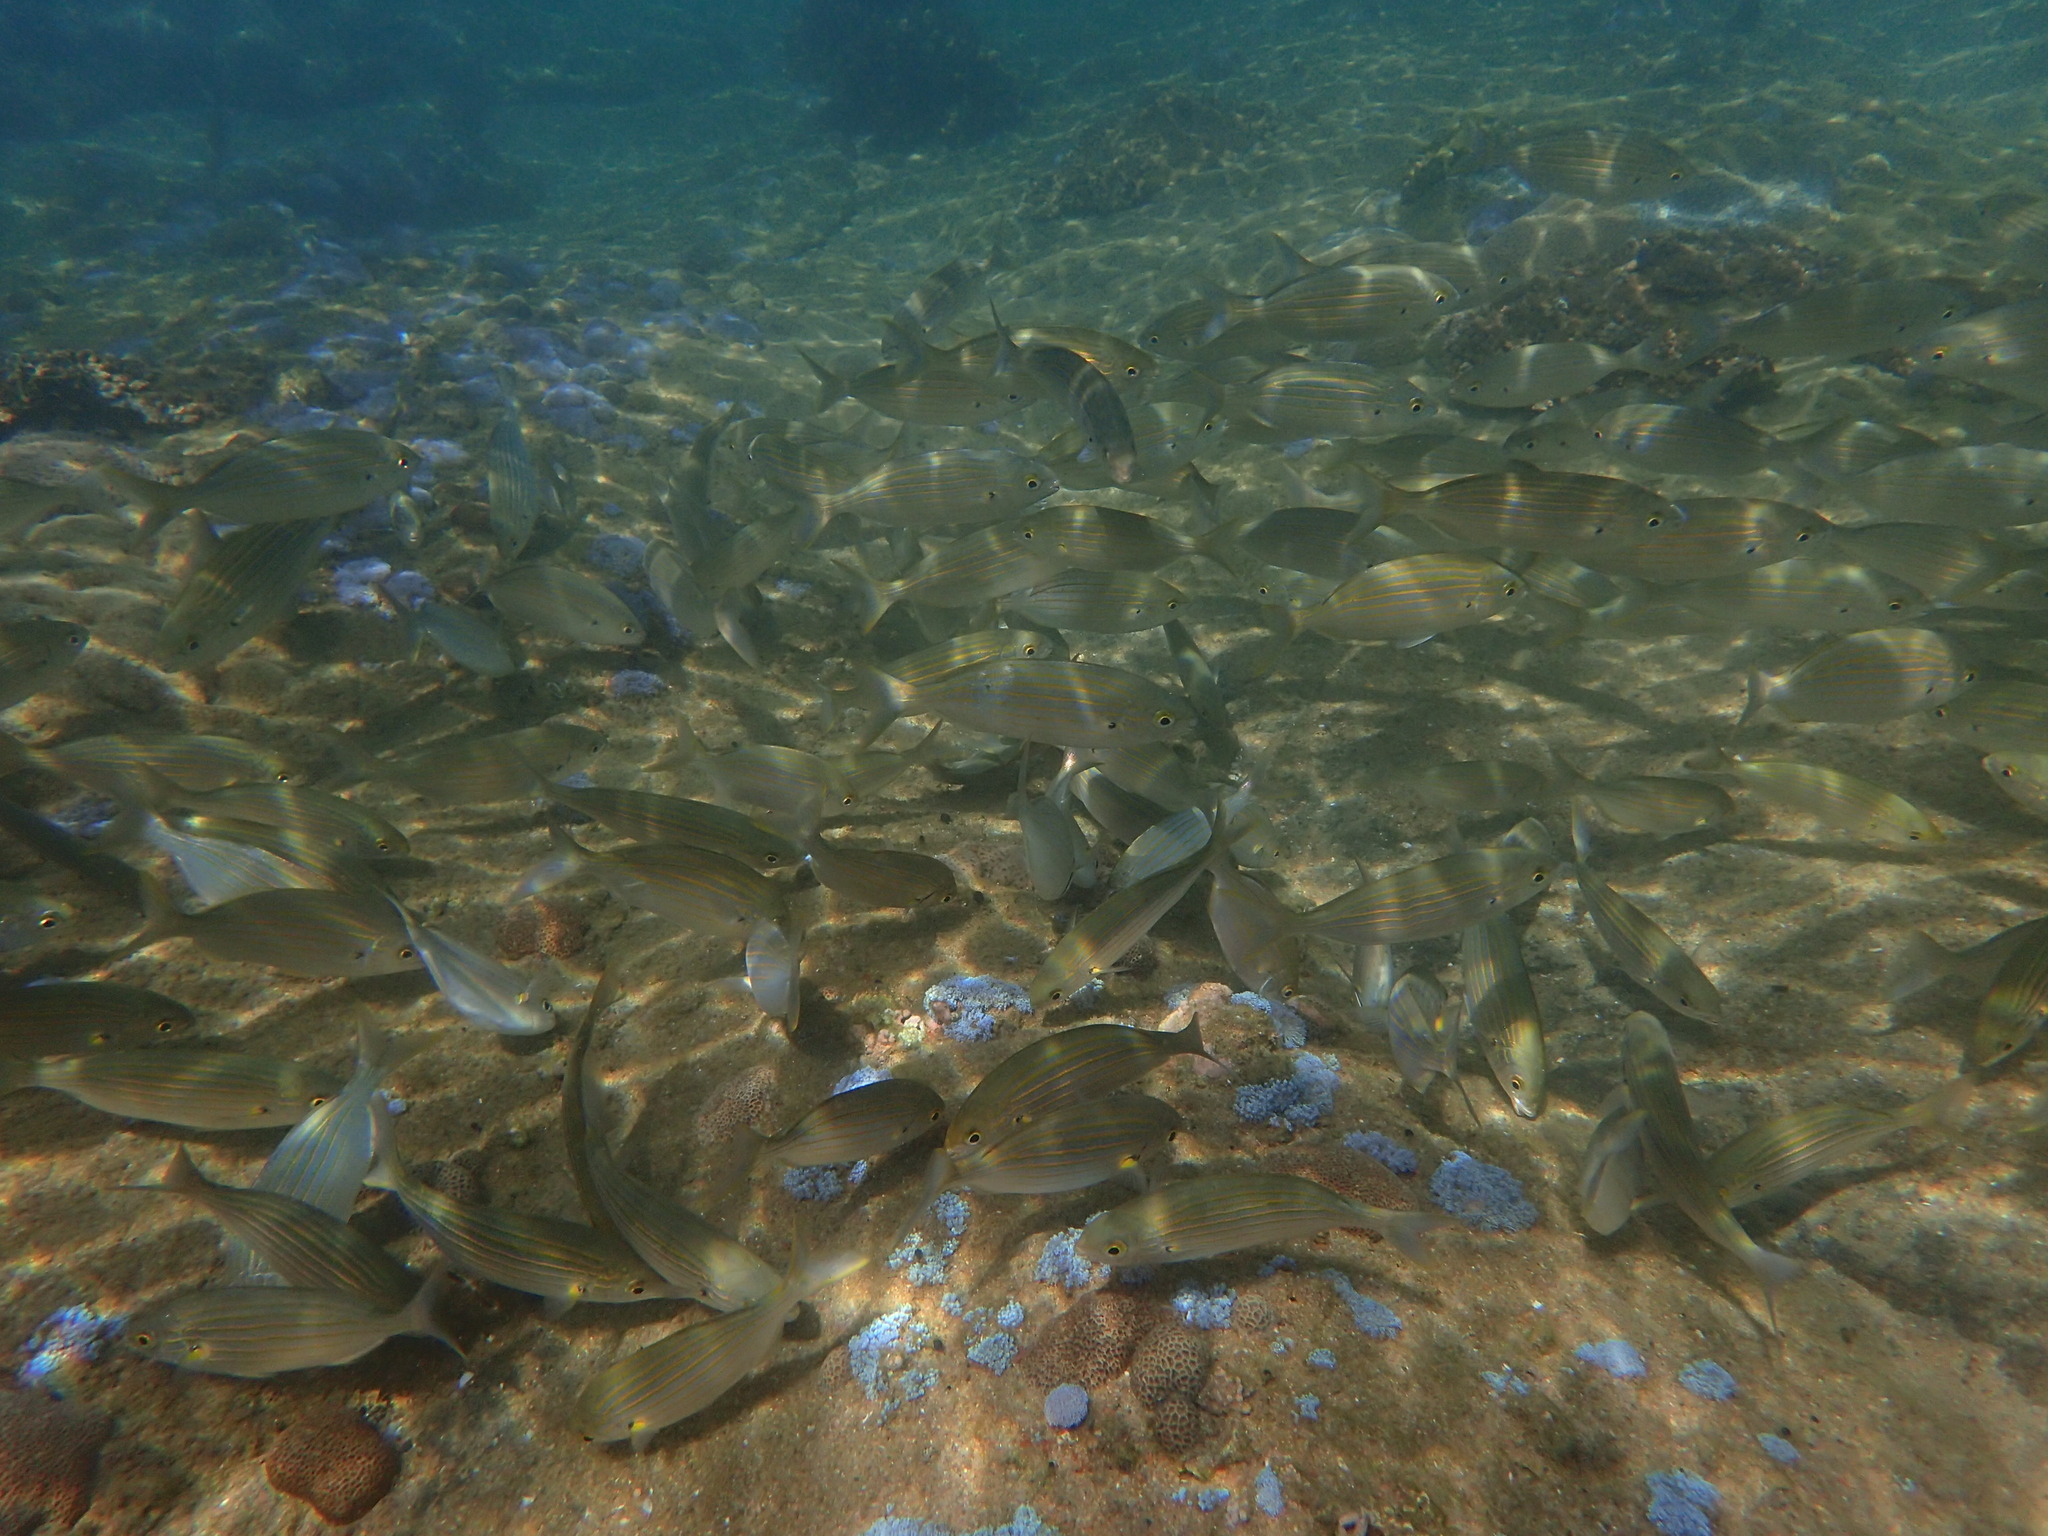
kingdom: Animalia
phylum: Chordata
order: Perciformes
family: Sparidae
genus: Sarpa
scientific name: Sarpa salpa
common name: Salema
